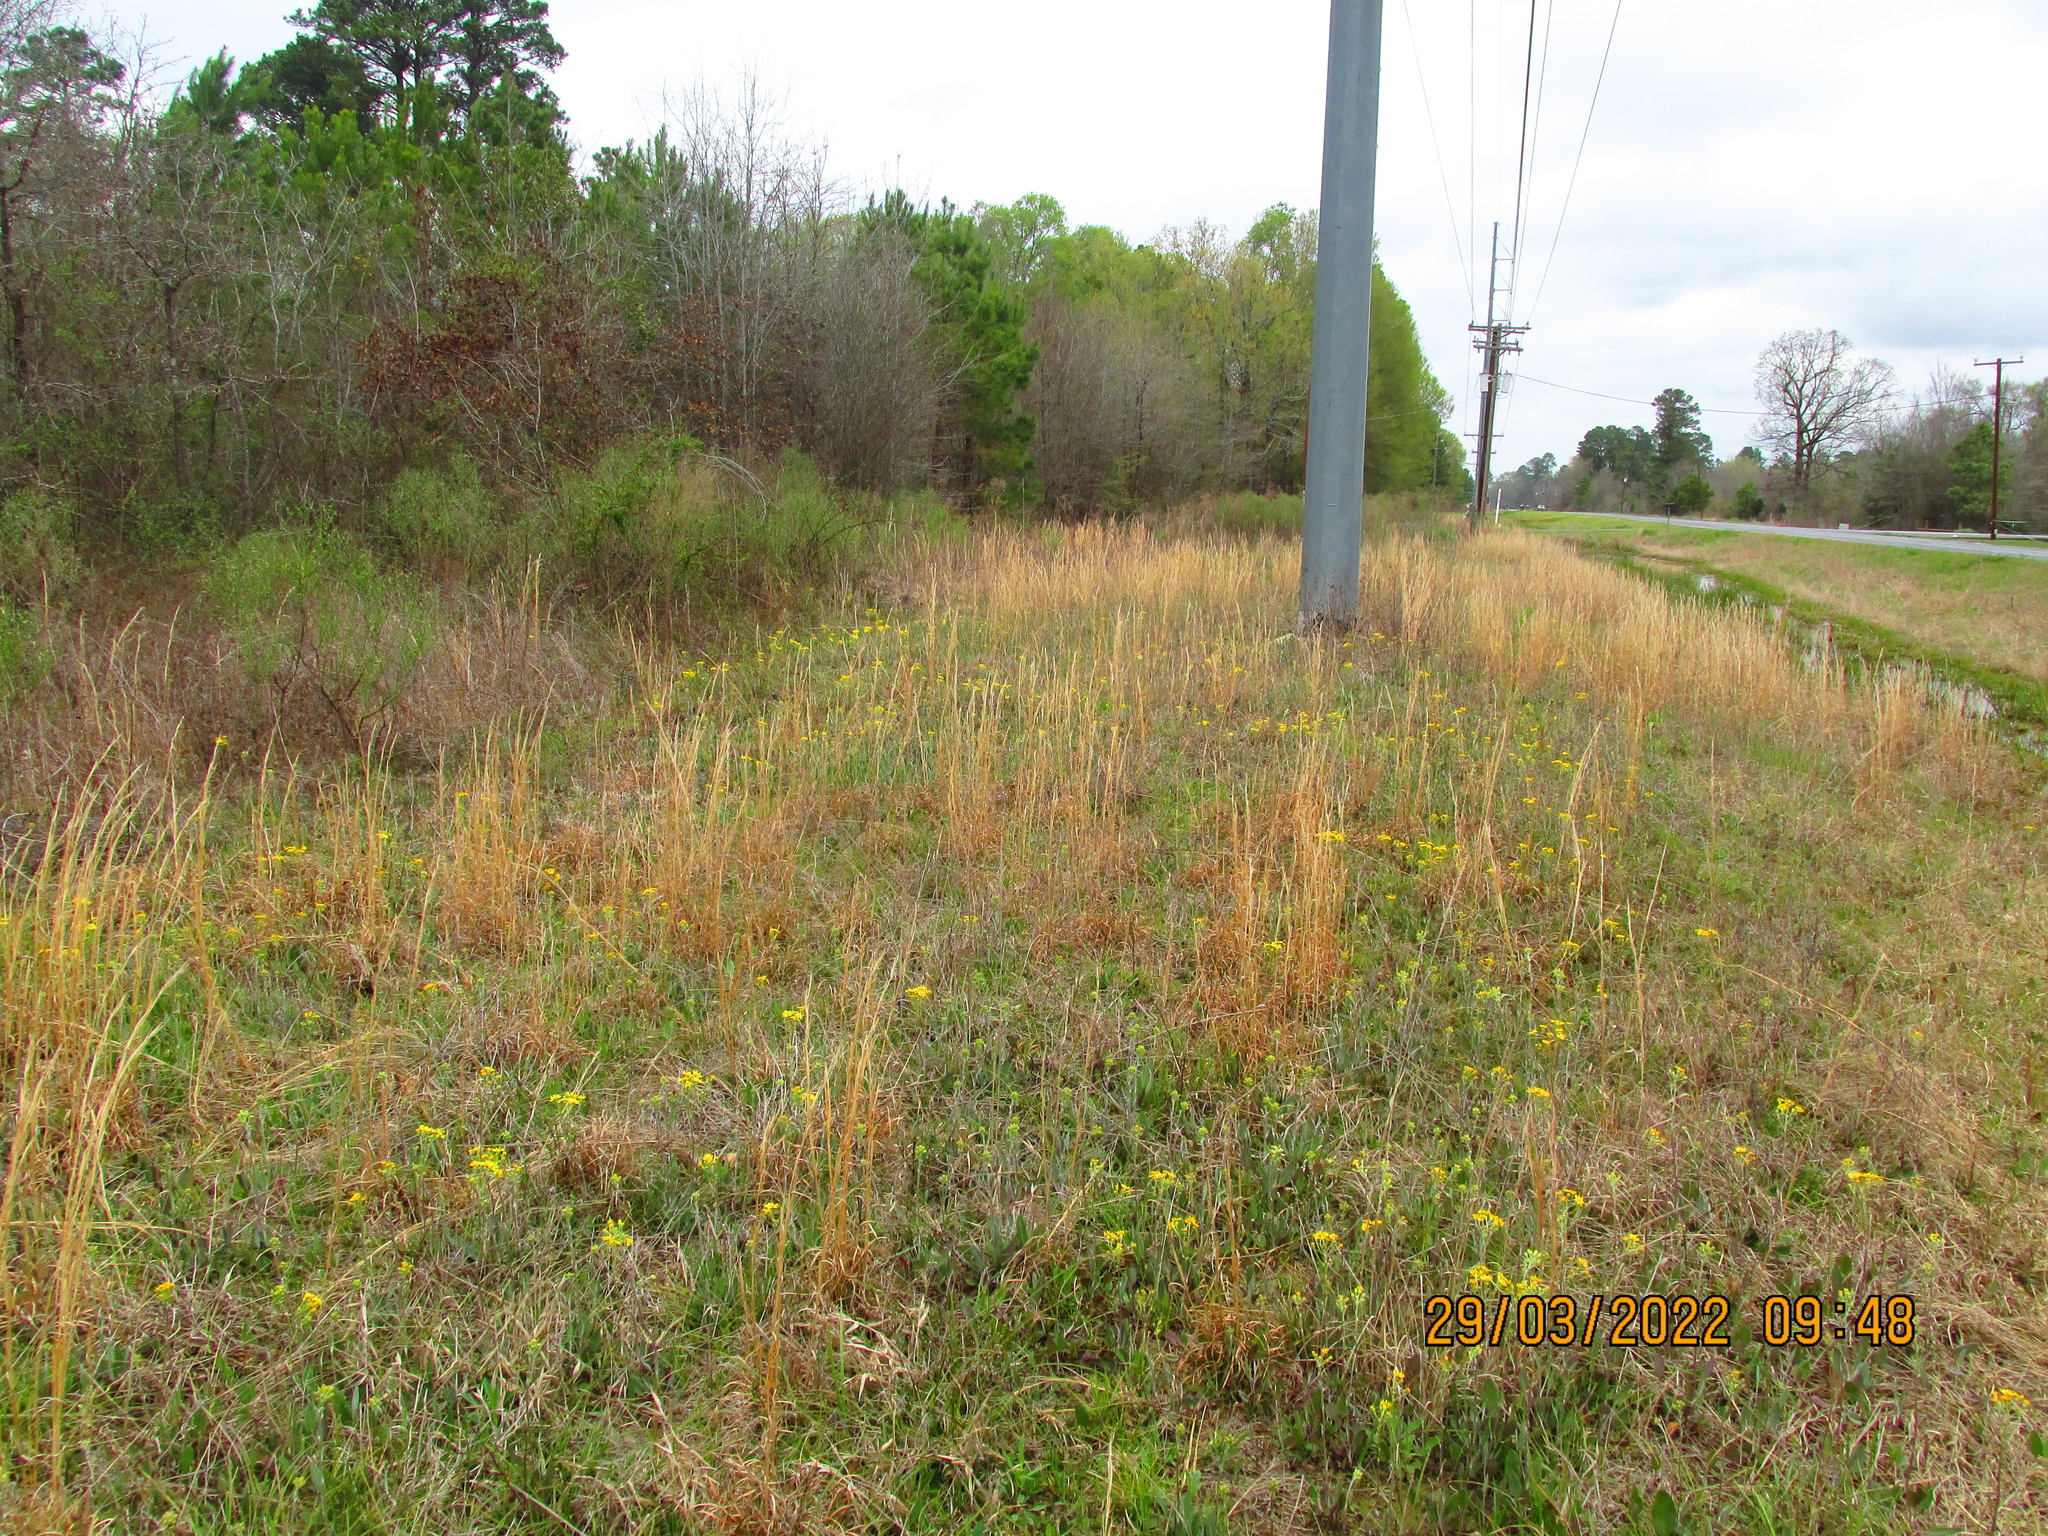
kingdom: Plantae
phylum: Tracheophyta
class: Magnoliopsida
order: Asterales
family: Asteraceae
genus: Packera
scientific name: Packera dubia
